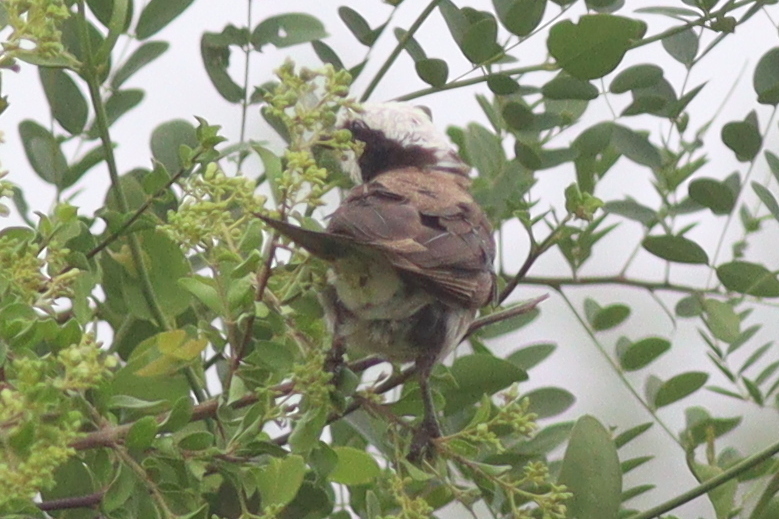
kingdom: Animalia
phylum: Chordata
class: Aves
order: Passeriformes
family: Laniidae
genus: Eurocephalus
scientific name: Eurocephalus ruppelli
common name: Northern white-crowned shrike
